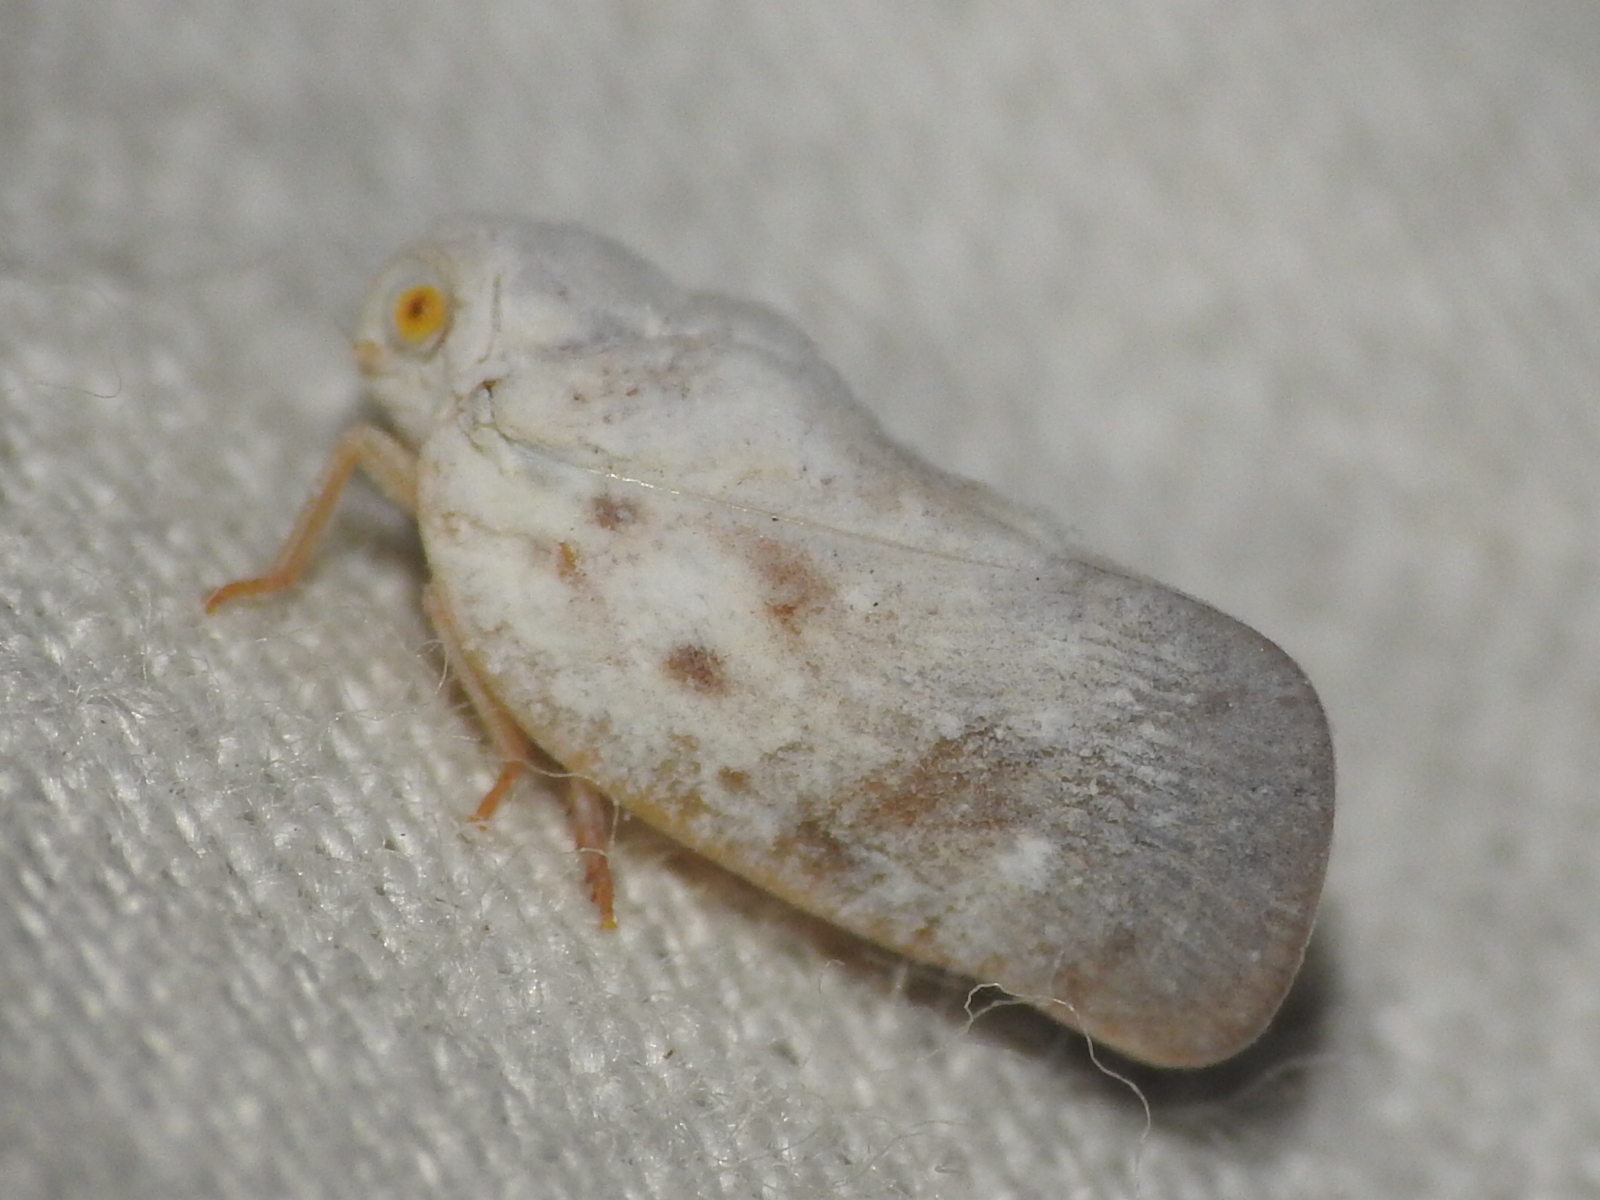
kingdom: Animalia
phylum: Arthropoda
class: Insecta
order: Hemiptera
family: Flatidae
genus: Metcalfa
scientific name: Metcalfa pruinosa
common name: Citrus flatid planthopper
